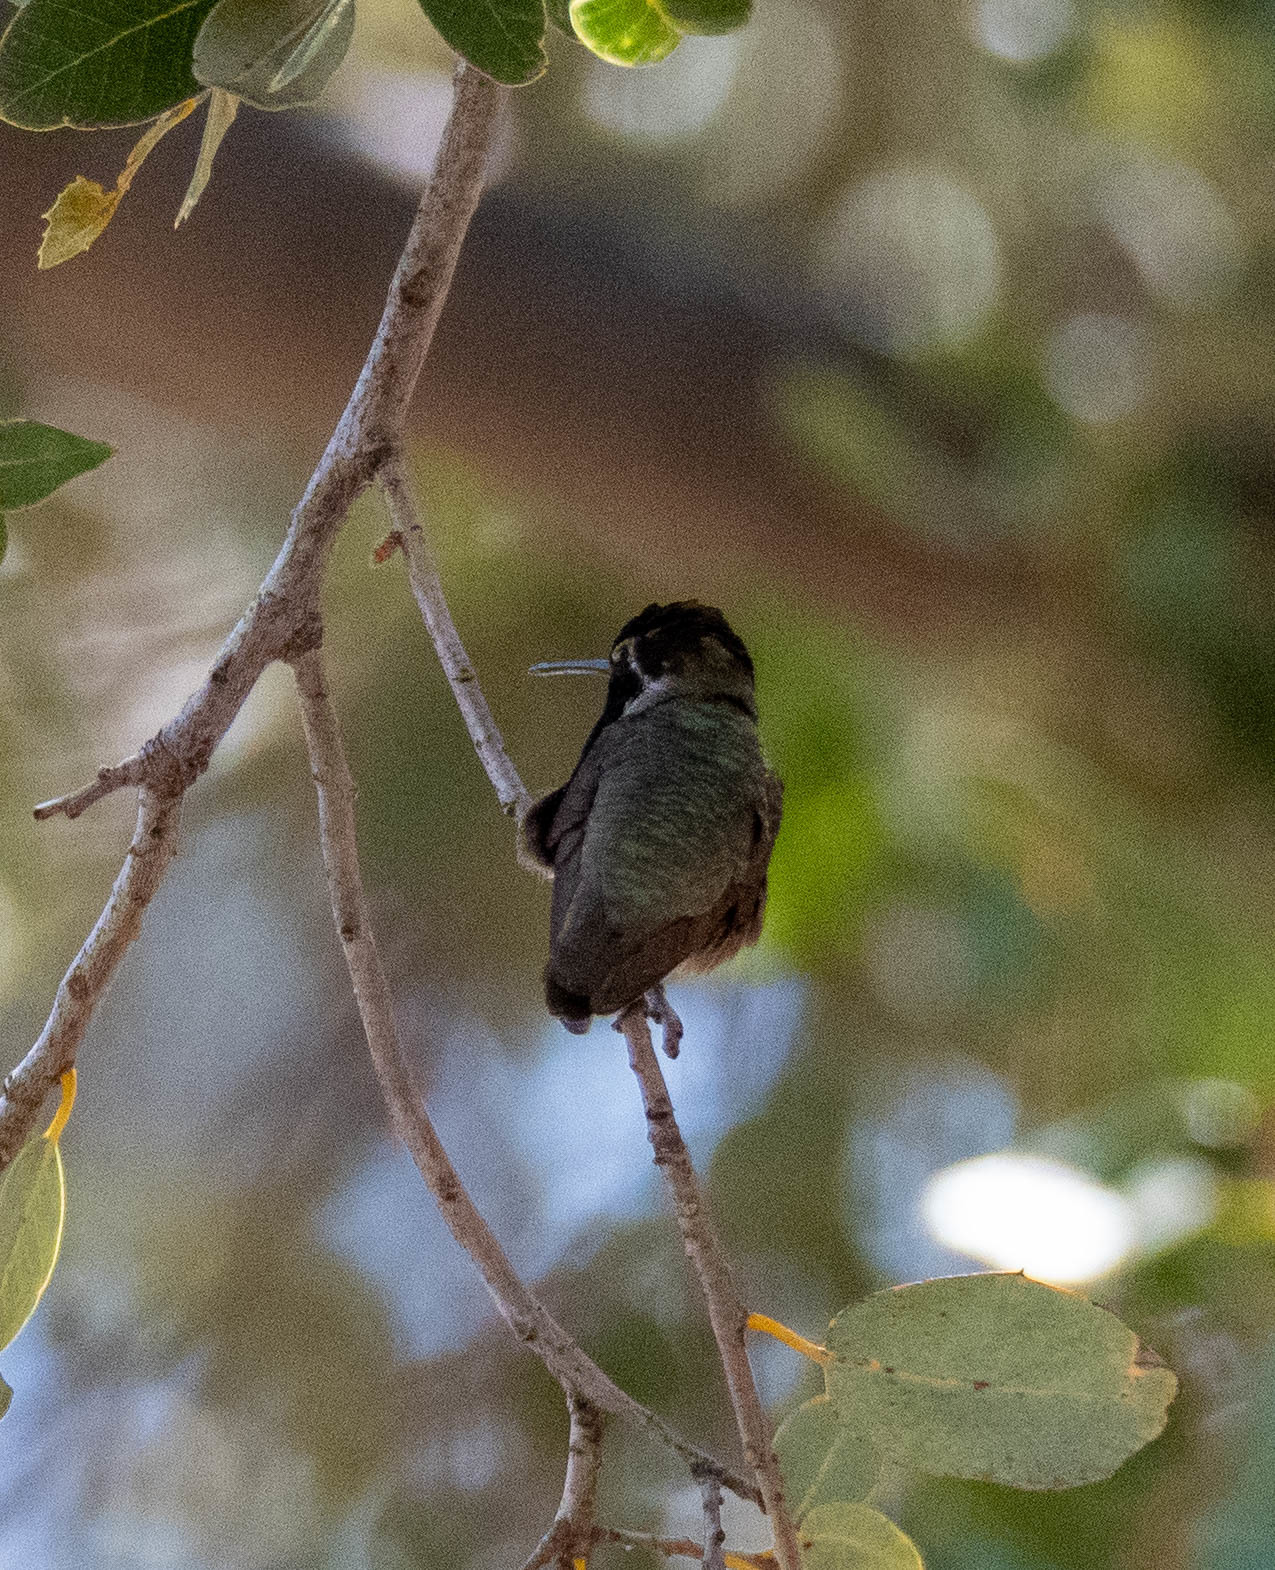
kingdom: Animalia
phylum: Chordata
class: Aves
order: Apodiformes
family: Trochilidae
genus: Calypte
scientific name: Calypte anna
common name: Anna's hummingbird
